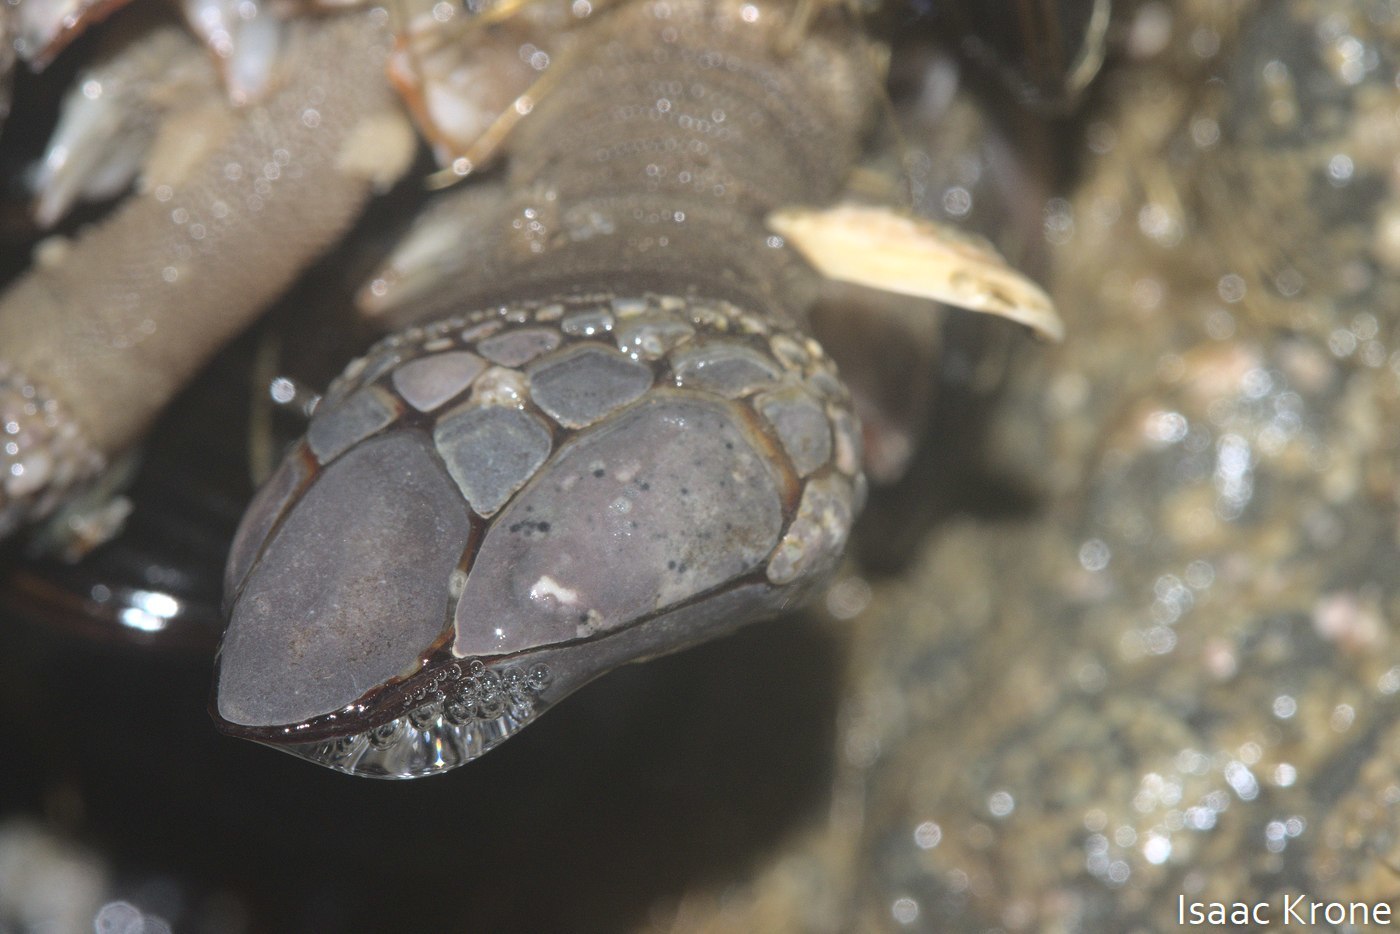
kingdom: Animalia
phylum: Arthropoda
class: Maxillopoda
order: Pedunculata
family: Pollicipedidae
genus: Pollicipes
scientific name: Pollicipes polymerus
